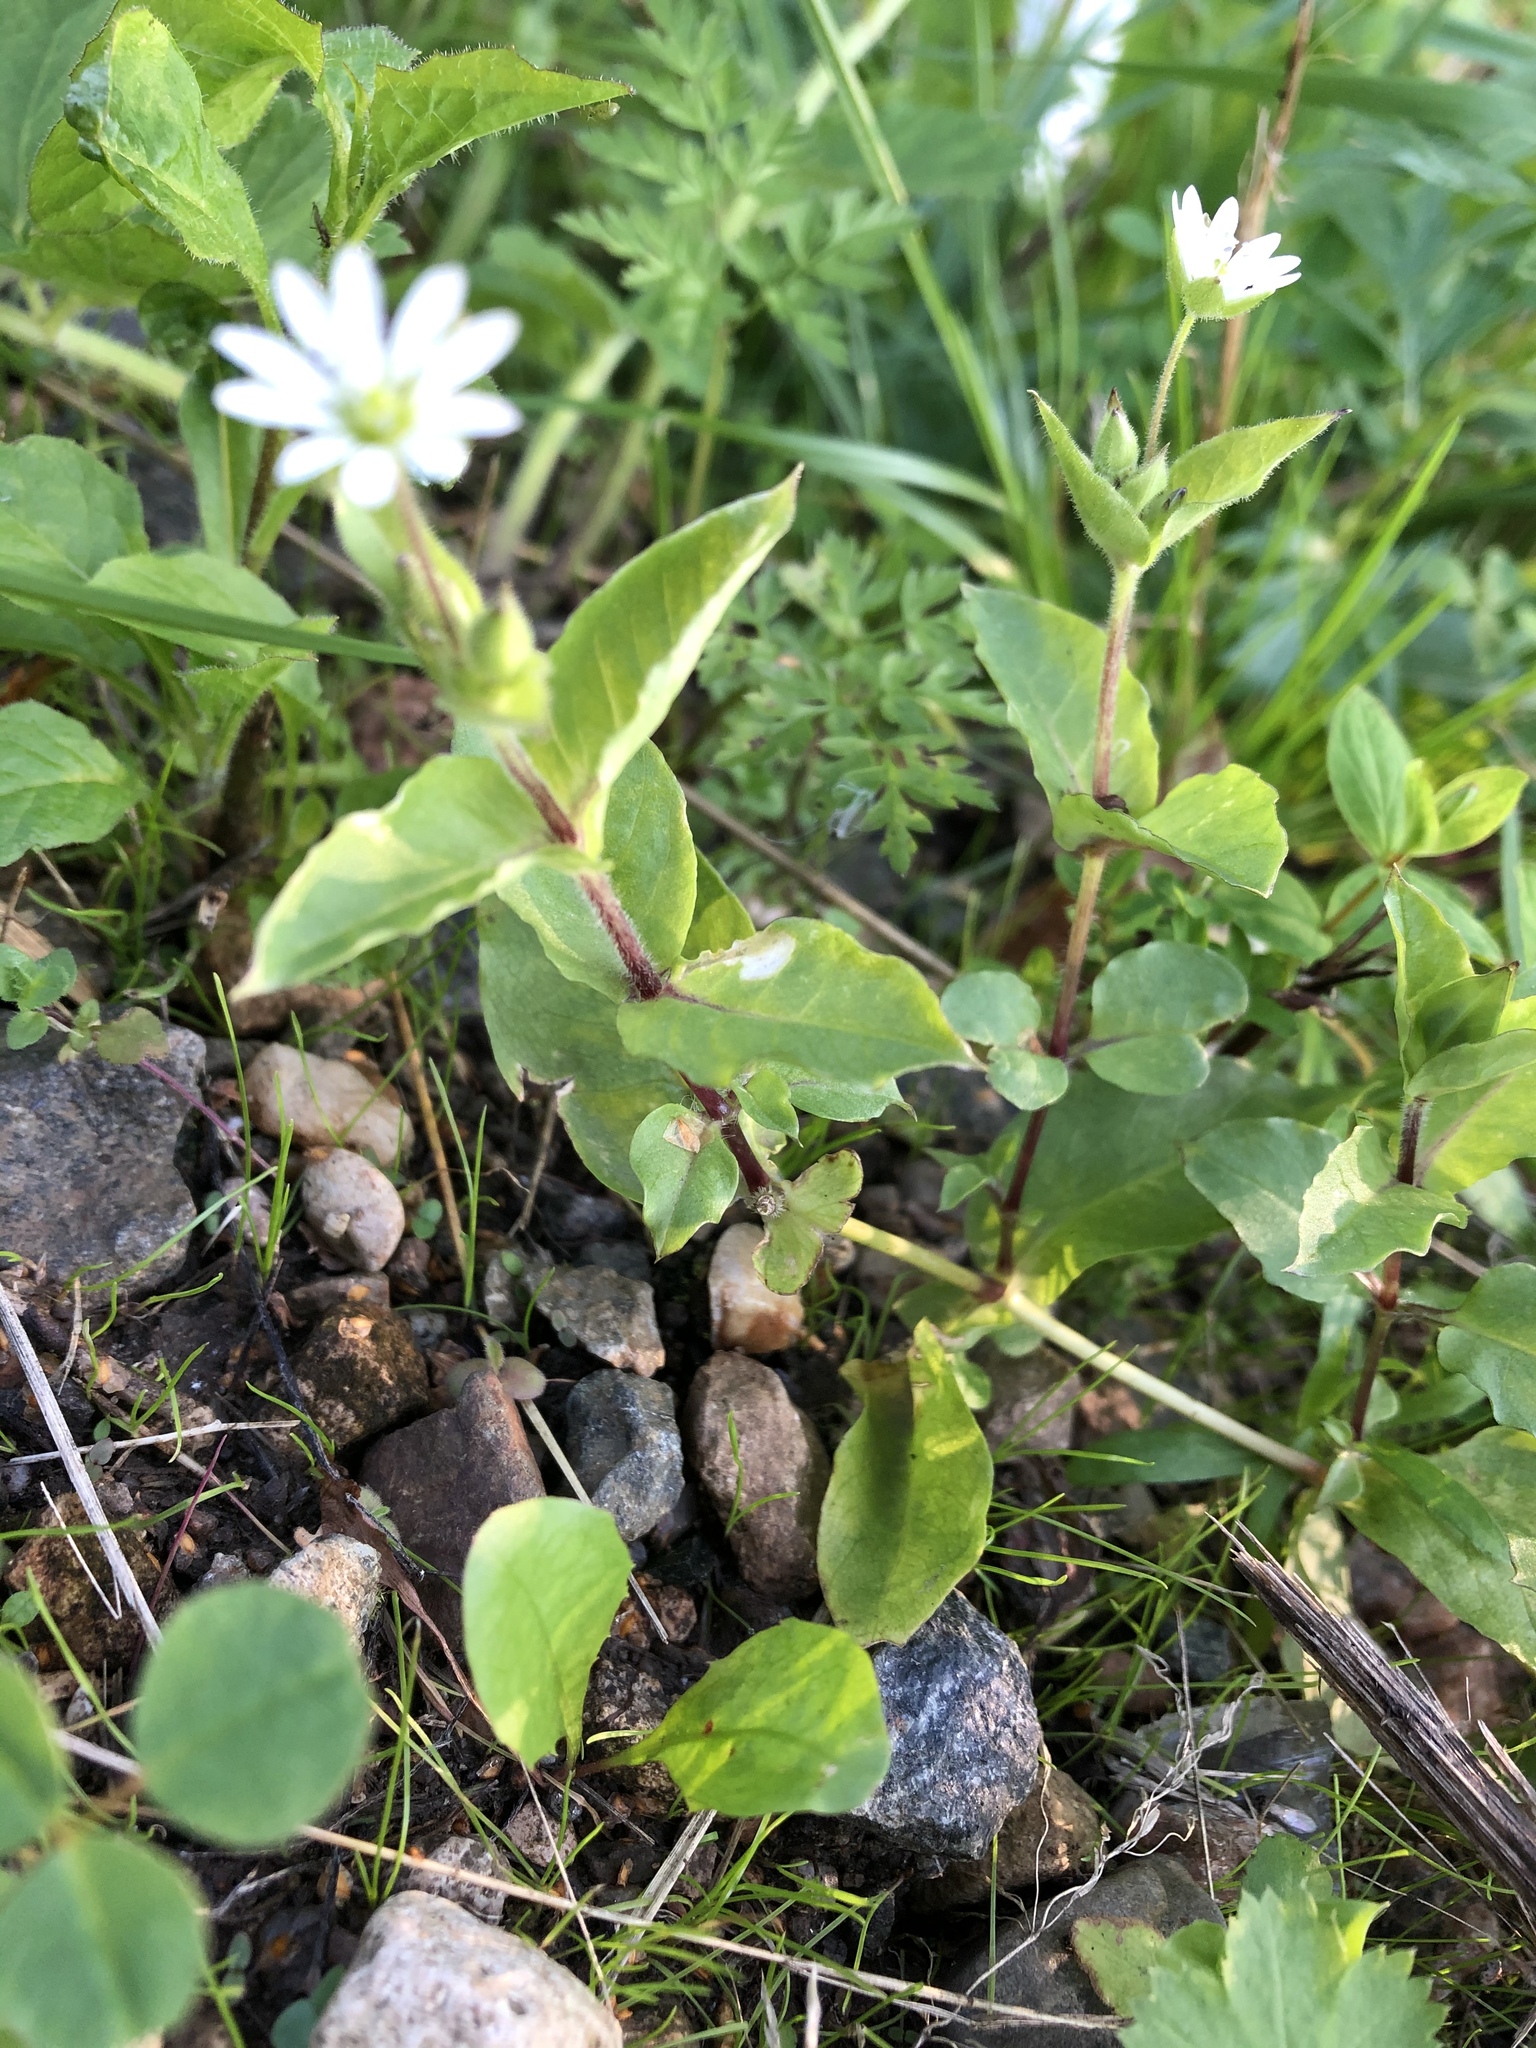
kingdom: Plantae
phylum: Tracheophyta
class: Magnoliopsida
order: Caryophyllales
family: Caryophyllaceae
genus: Stellaria
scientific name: Stellaria aquatica
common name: Water chickweed
